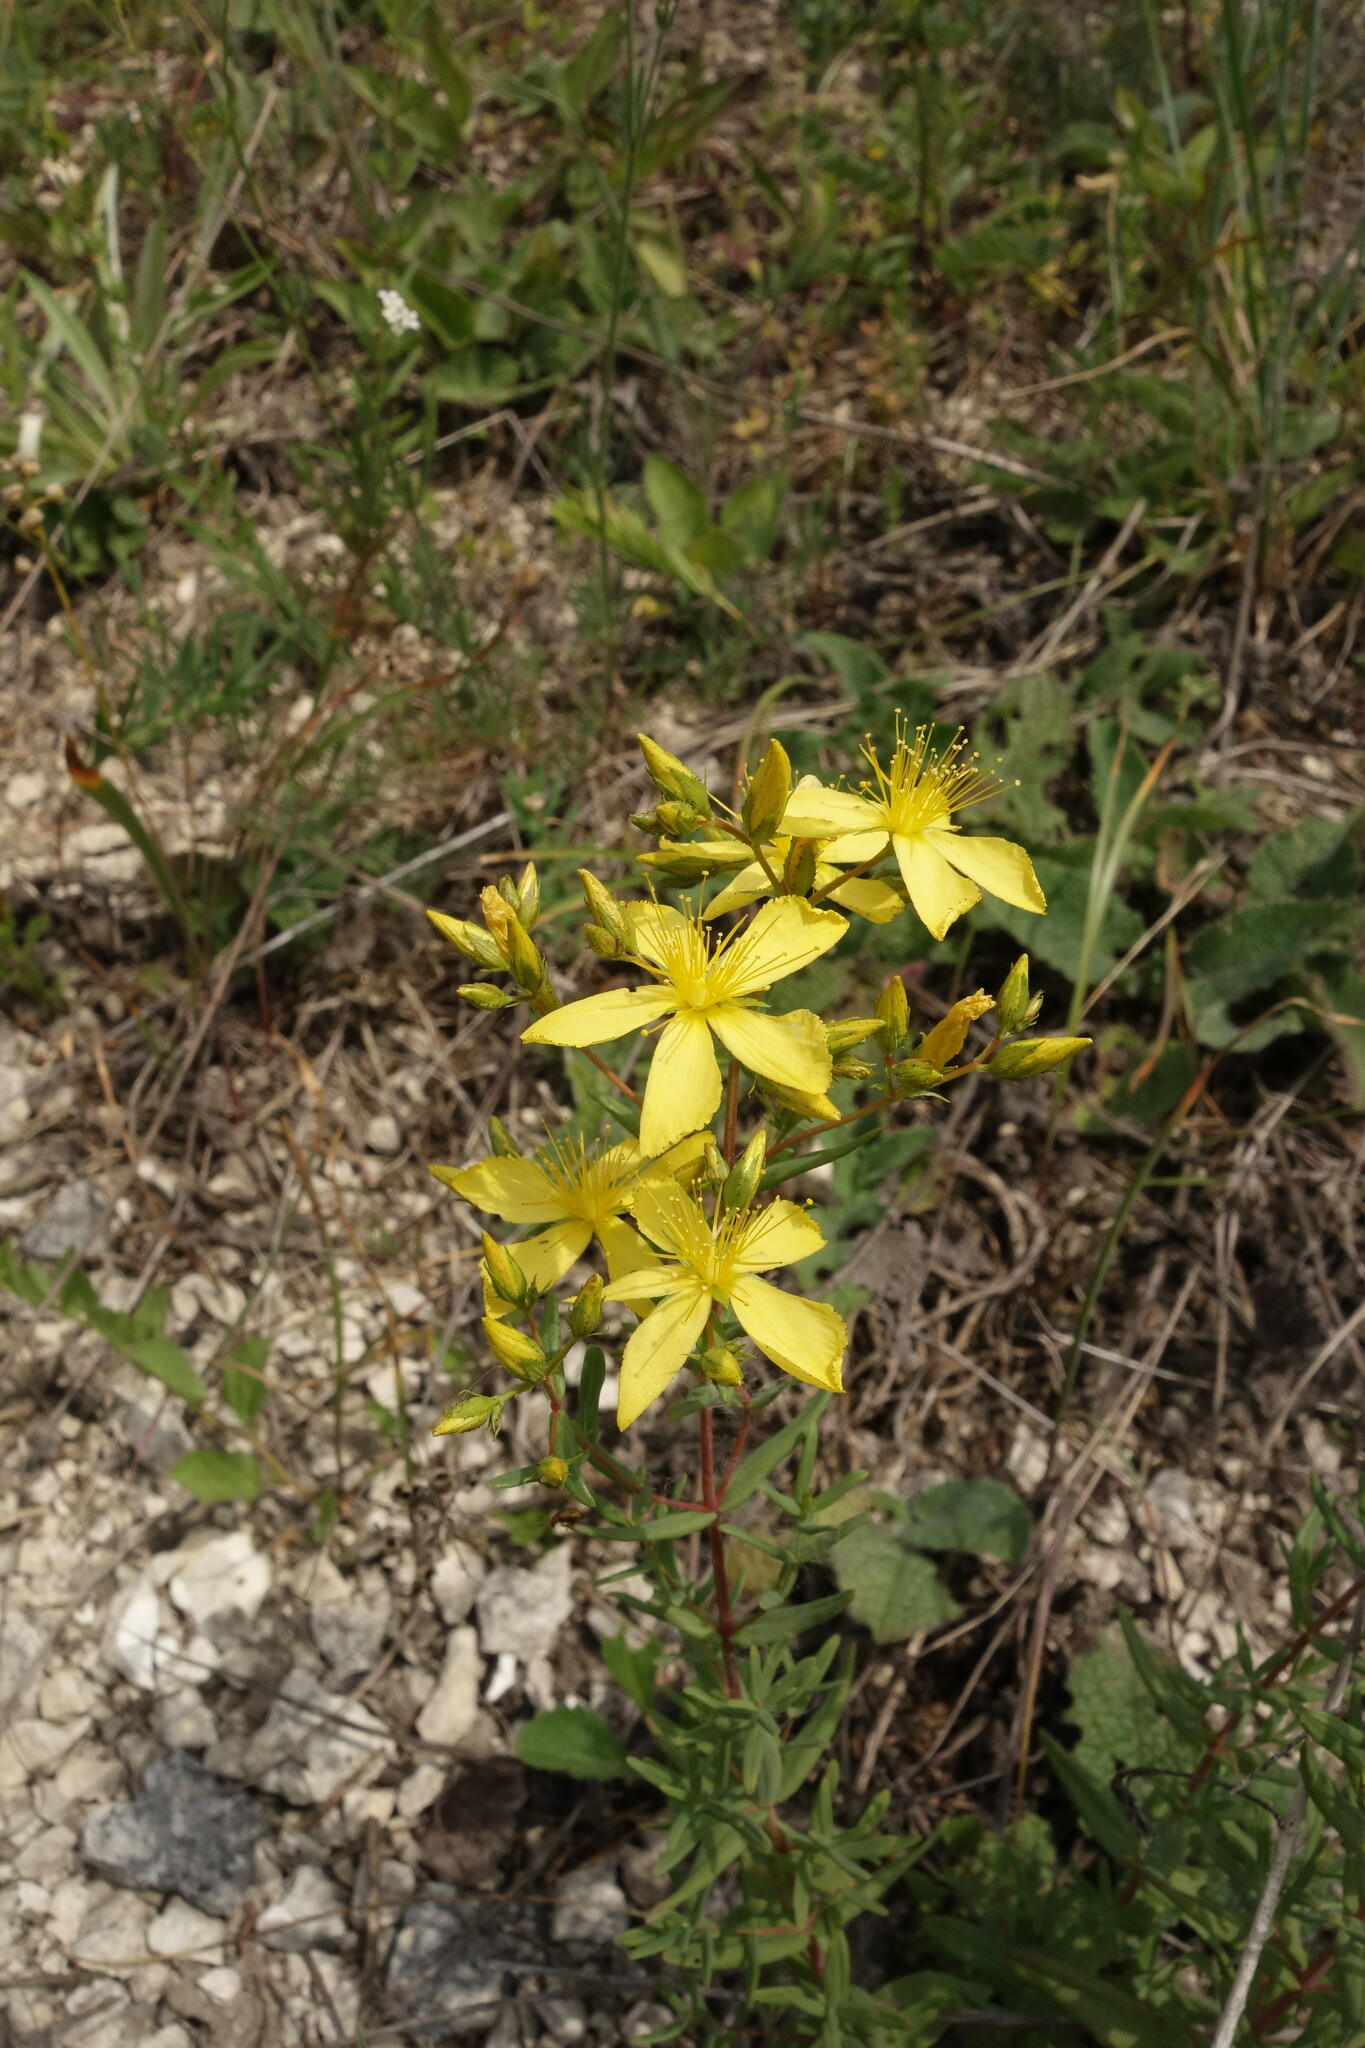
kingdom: Plantae
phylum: Tracheophyta
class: Magnoliopsida
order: Malpighiales
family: Hypericaceae
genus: Hypericum
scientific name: Hypericum elegans
